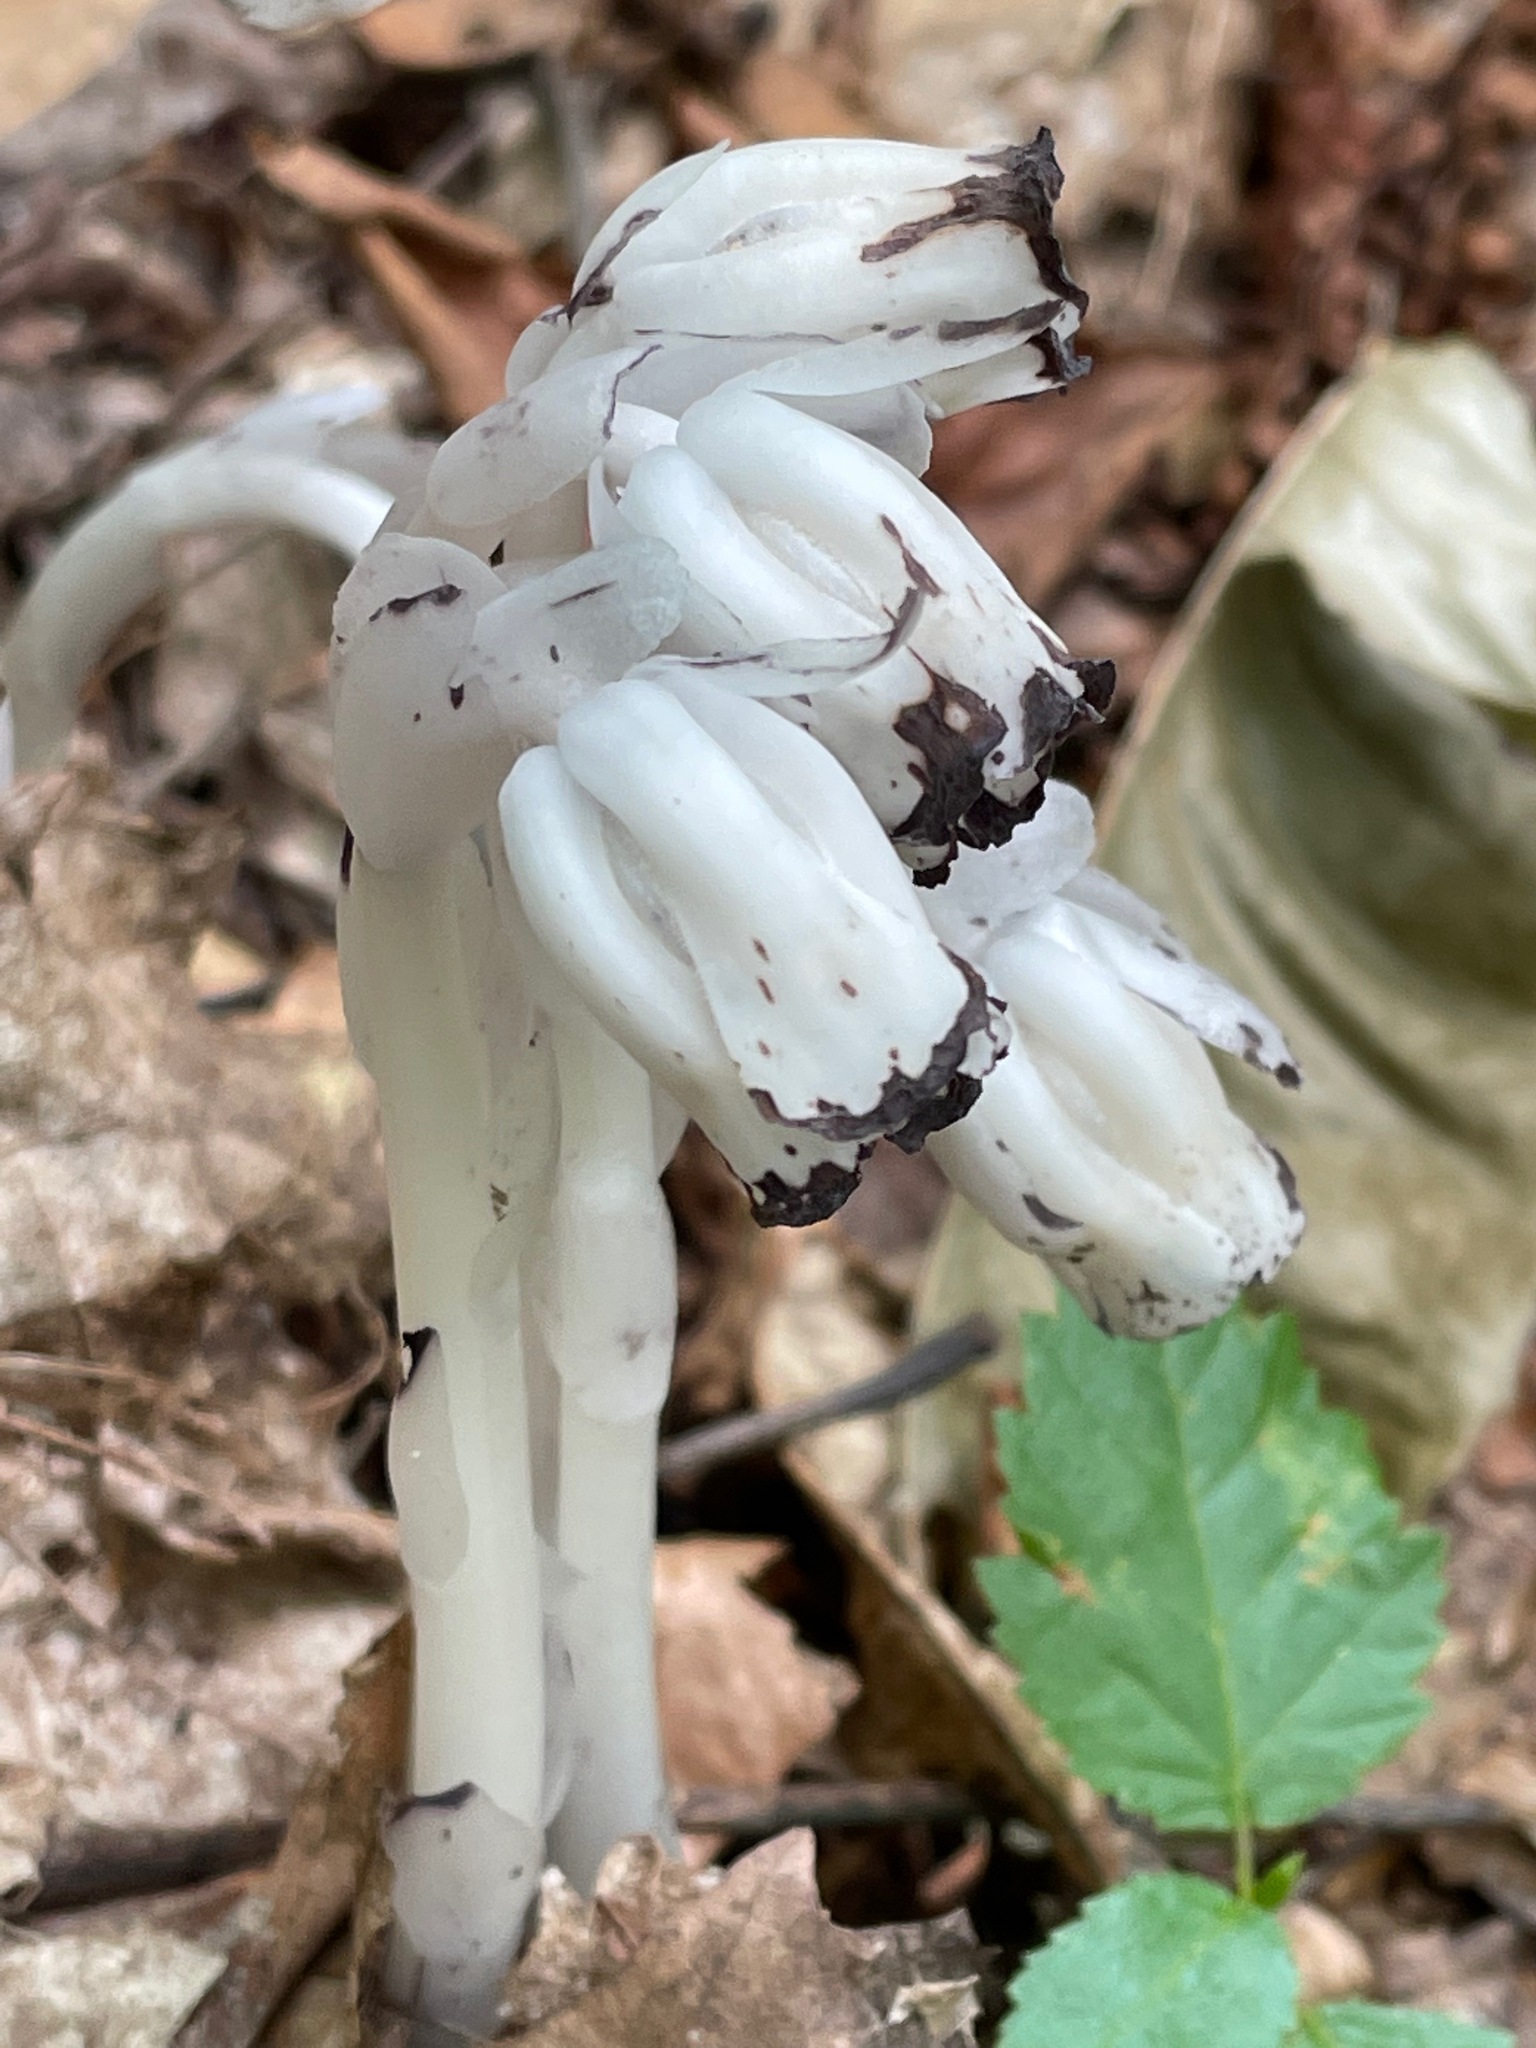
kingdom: Plantae
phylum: Tracheophyta
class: Magnoliopsida
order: Ericales
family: Ericaceae
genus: Monotropa
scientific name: Monotropa uniflora
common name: Convulsion root
